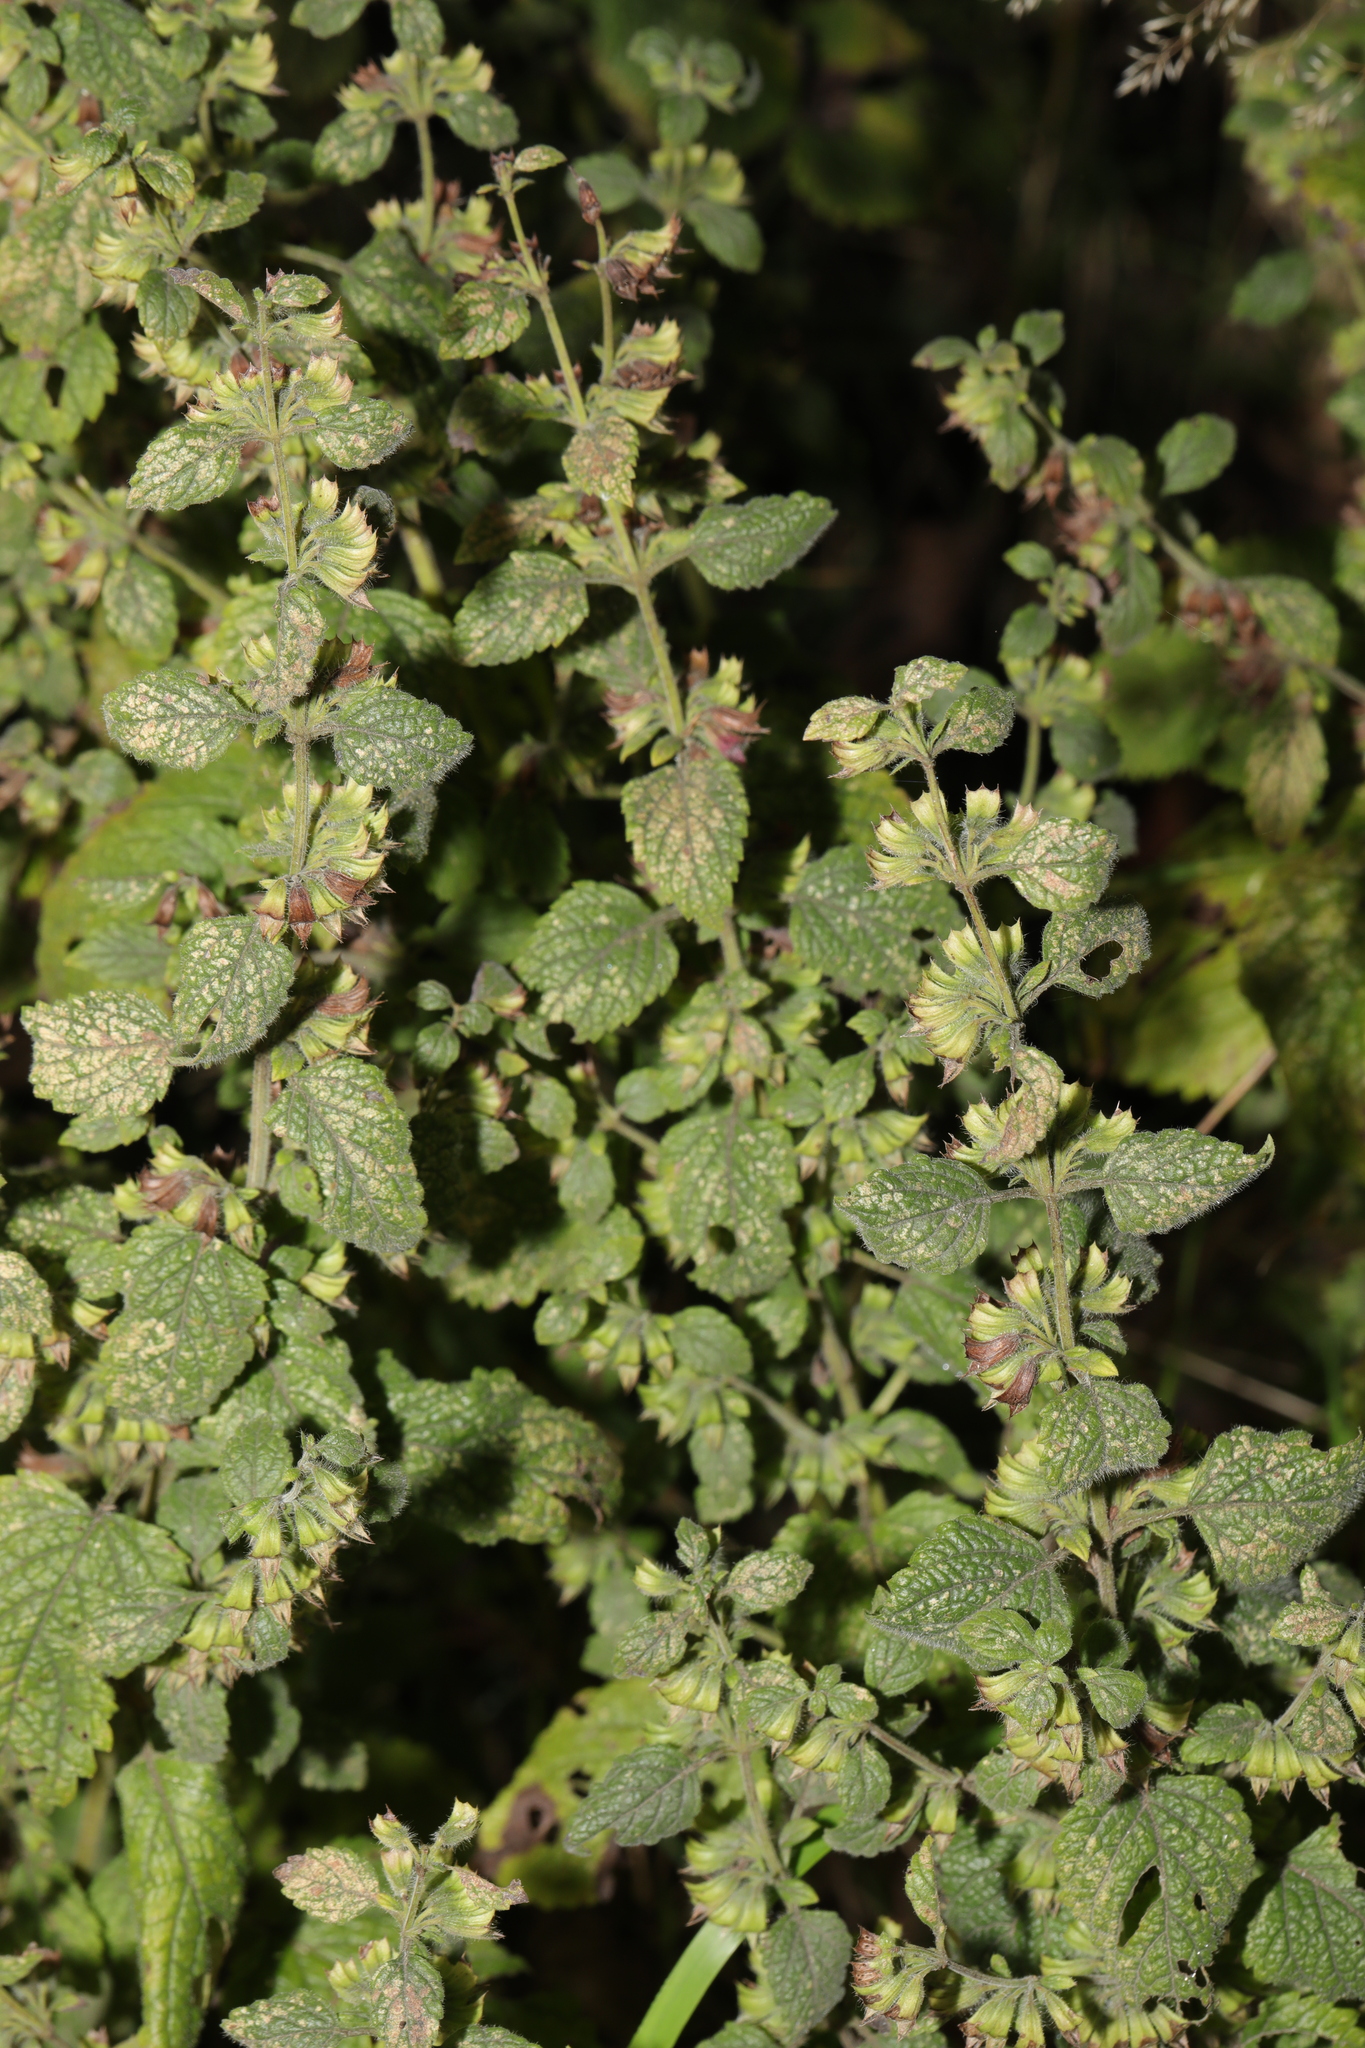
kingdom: Plantae
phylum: Tracheophyta
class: Magnoliopsida
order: Lamiales
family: Lamiaceae
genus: Melissa
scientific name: Melissa officinalis
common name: Balm
